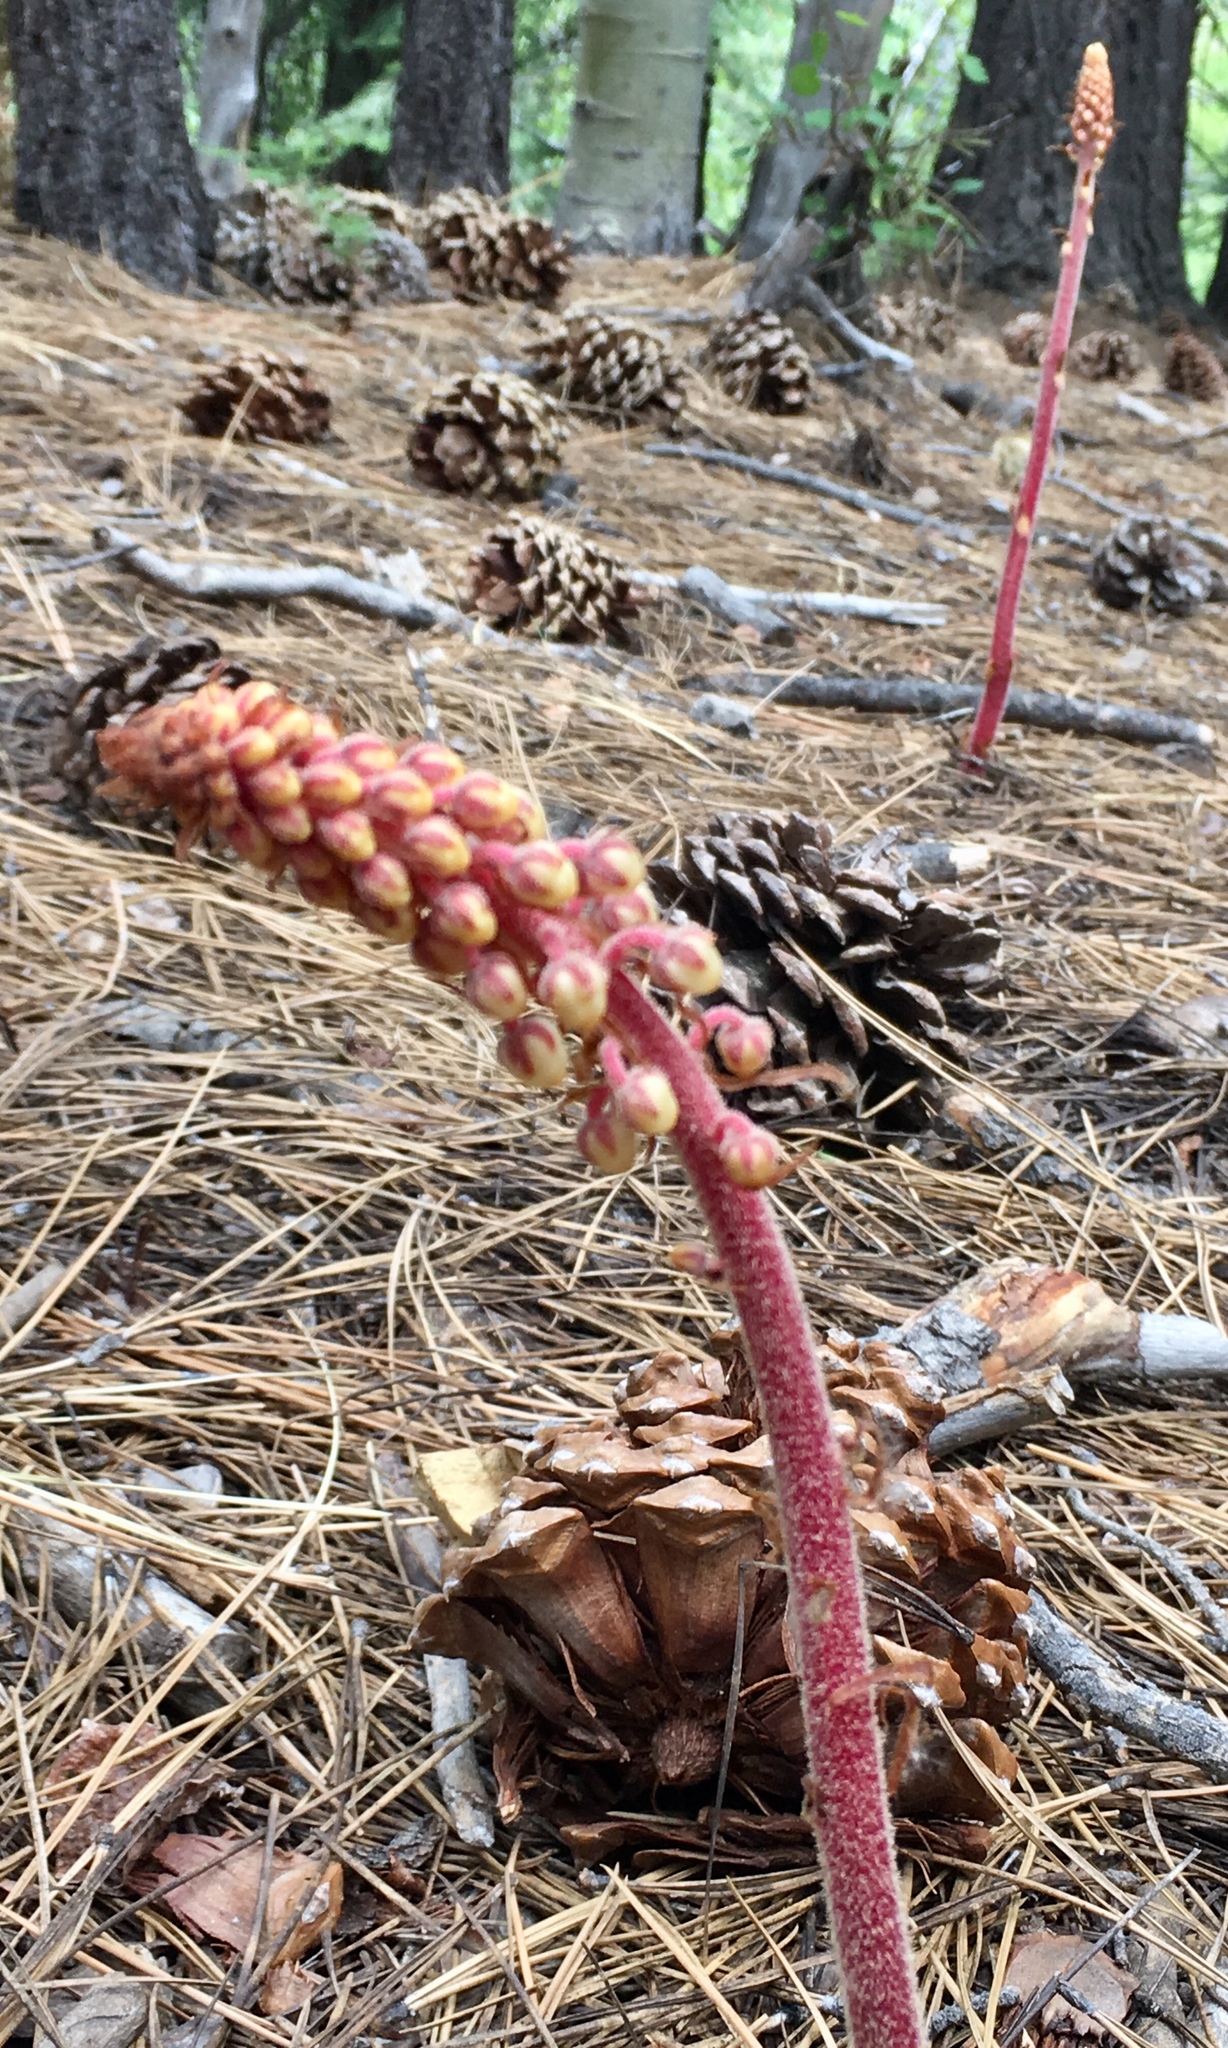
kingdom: Plantae
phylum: Tracheophyta
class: Magnoliopsida
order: Ericales
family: Ericaceae
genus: Pterospora
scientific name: Pterospora andromedea
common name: Giant bird's-nest
